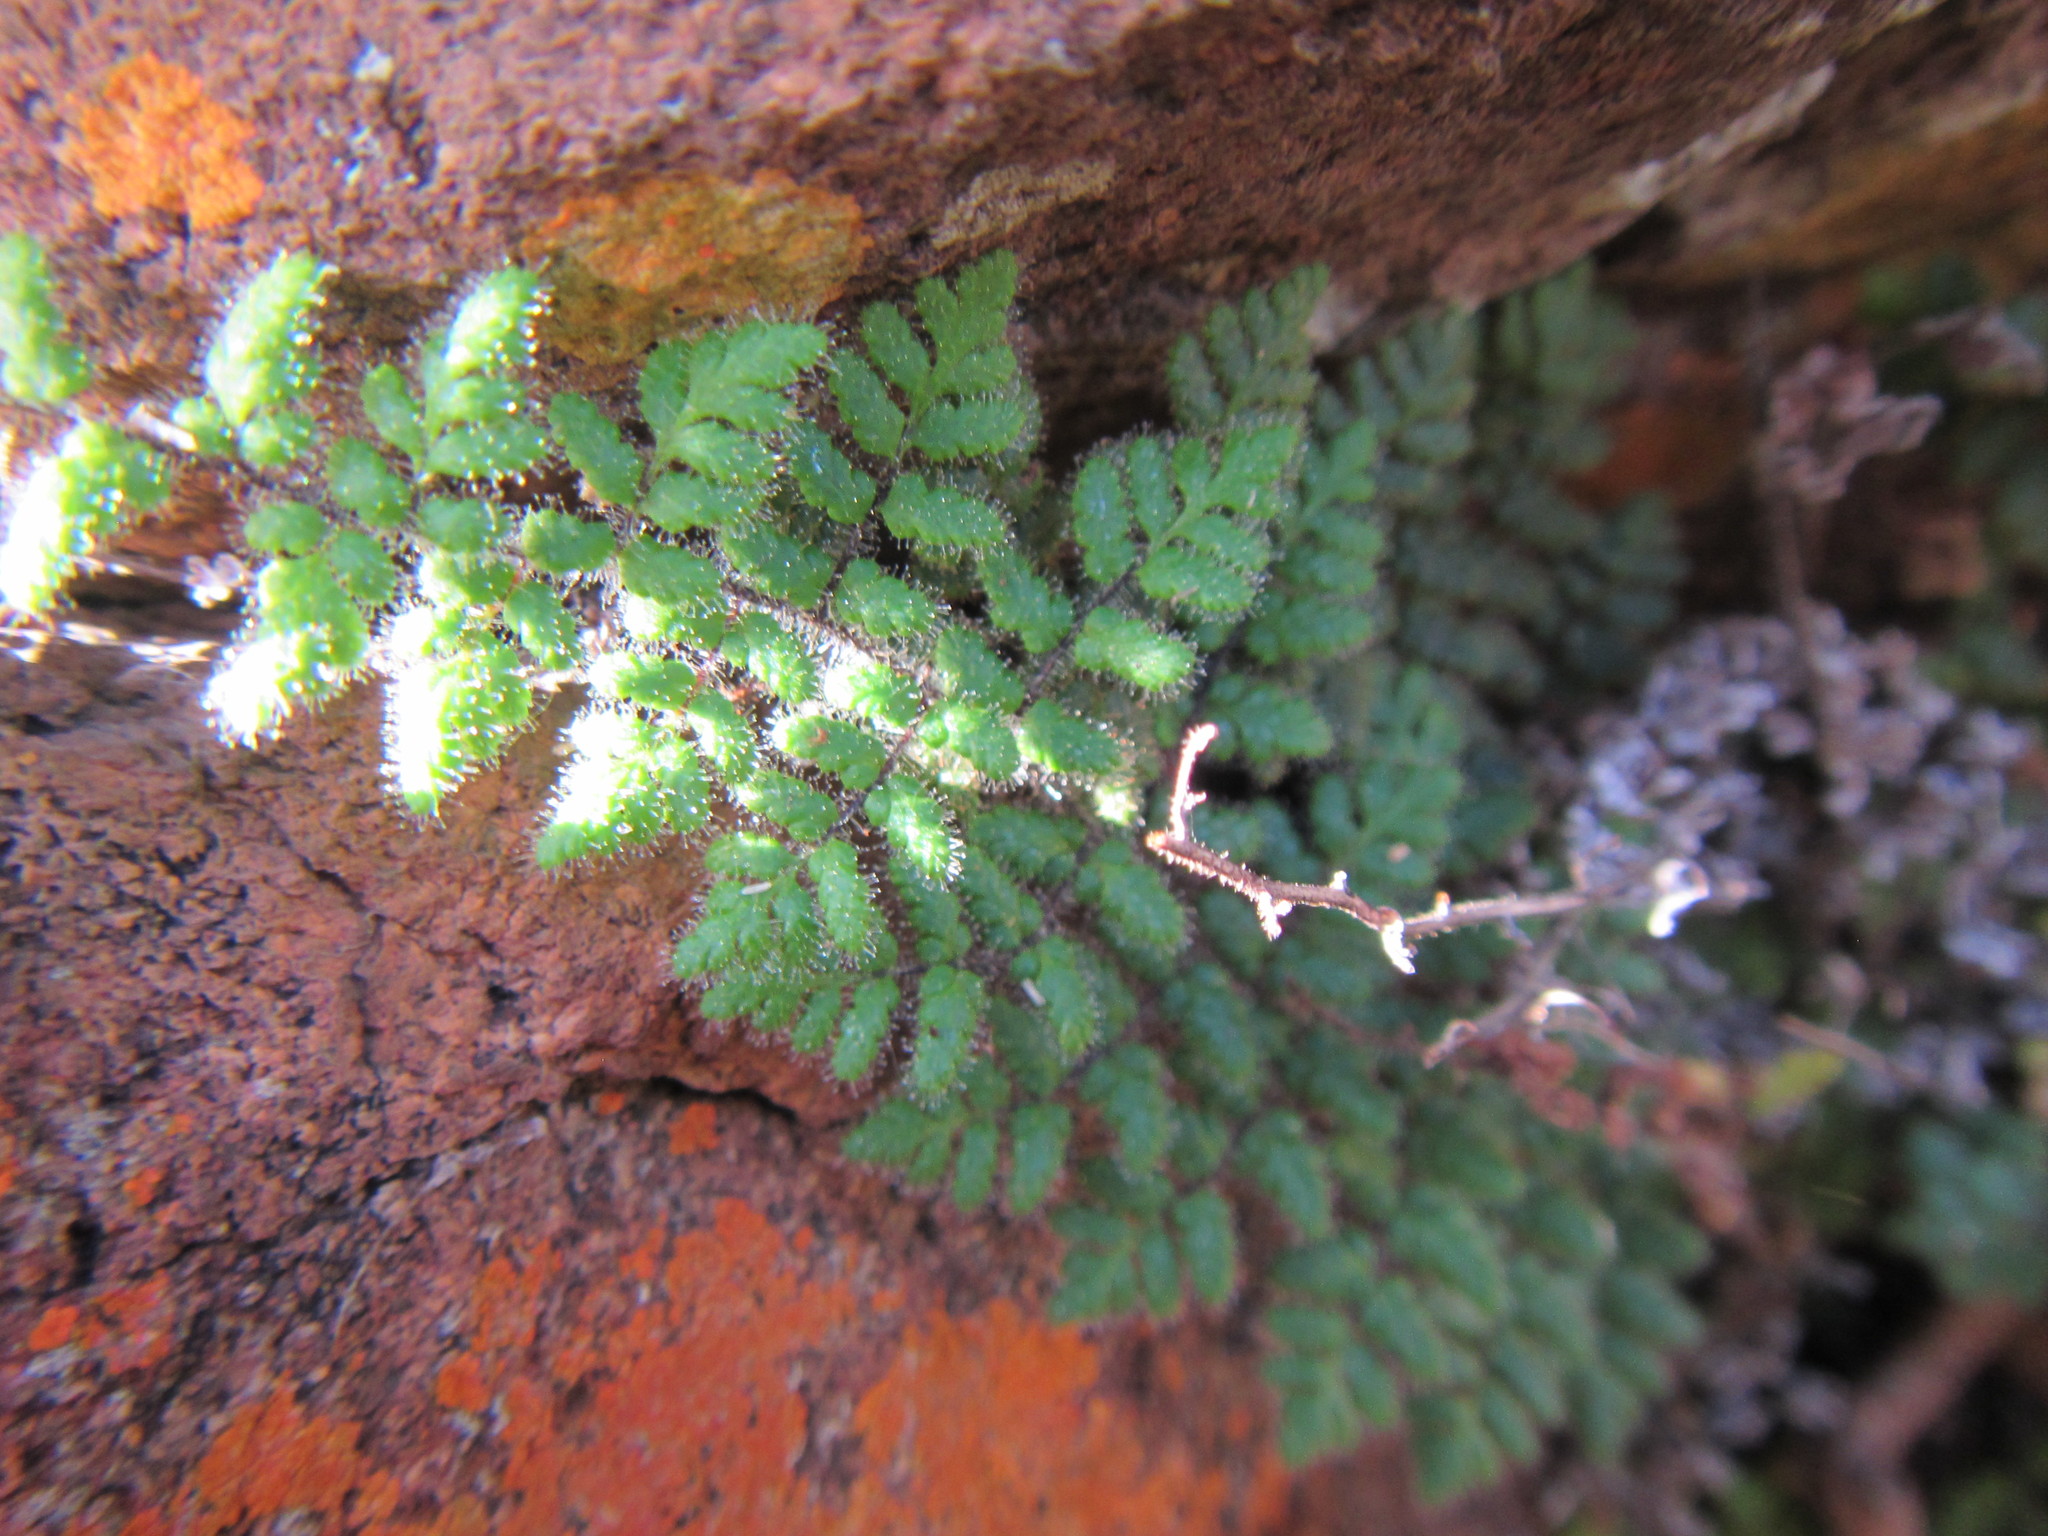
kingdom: Plantae
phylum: Tracheophyta
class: Polypodiopsida
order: Polypodiales
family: Pteridaceae
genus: Cheilanthes
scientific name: Cheilanthes hirta
